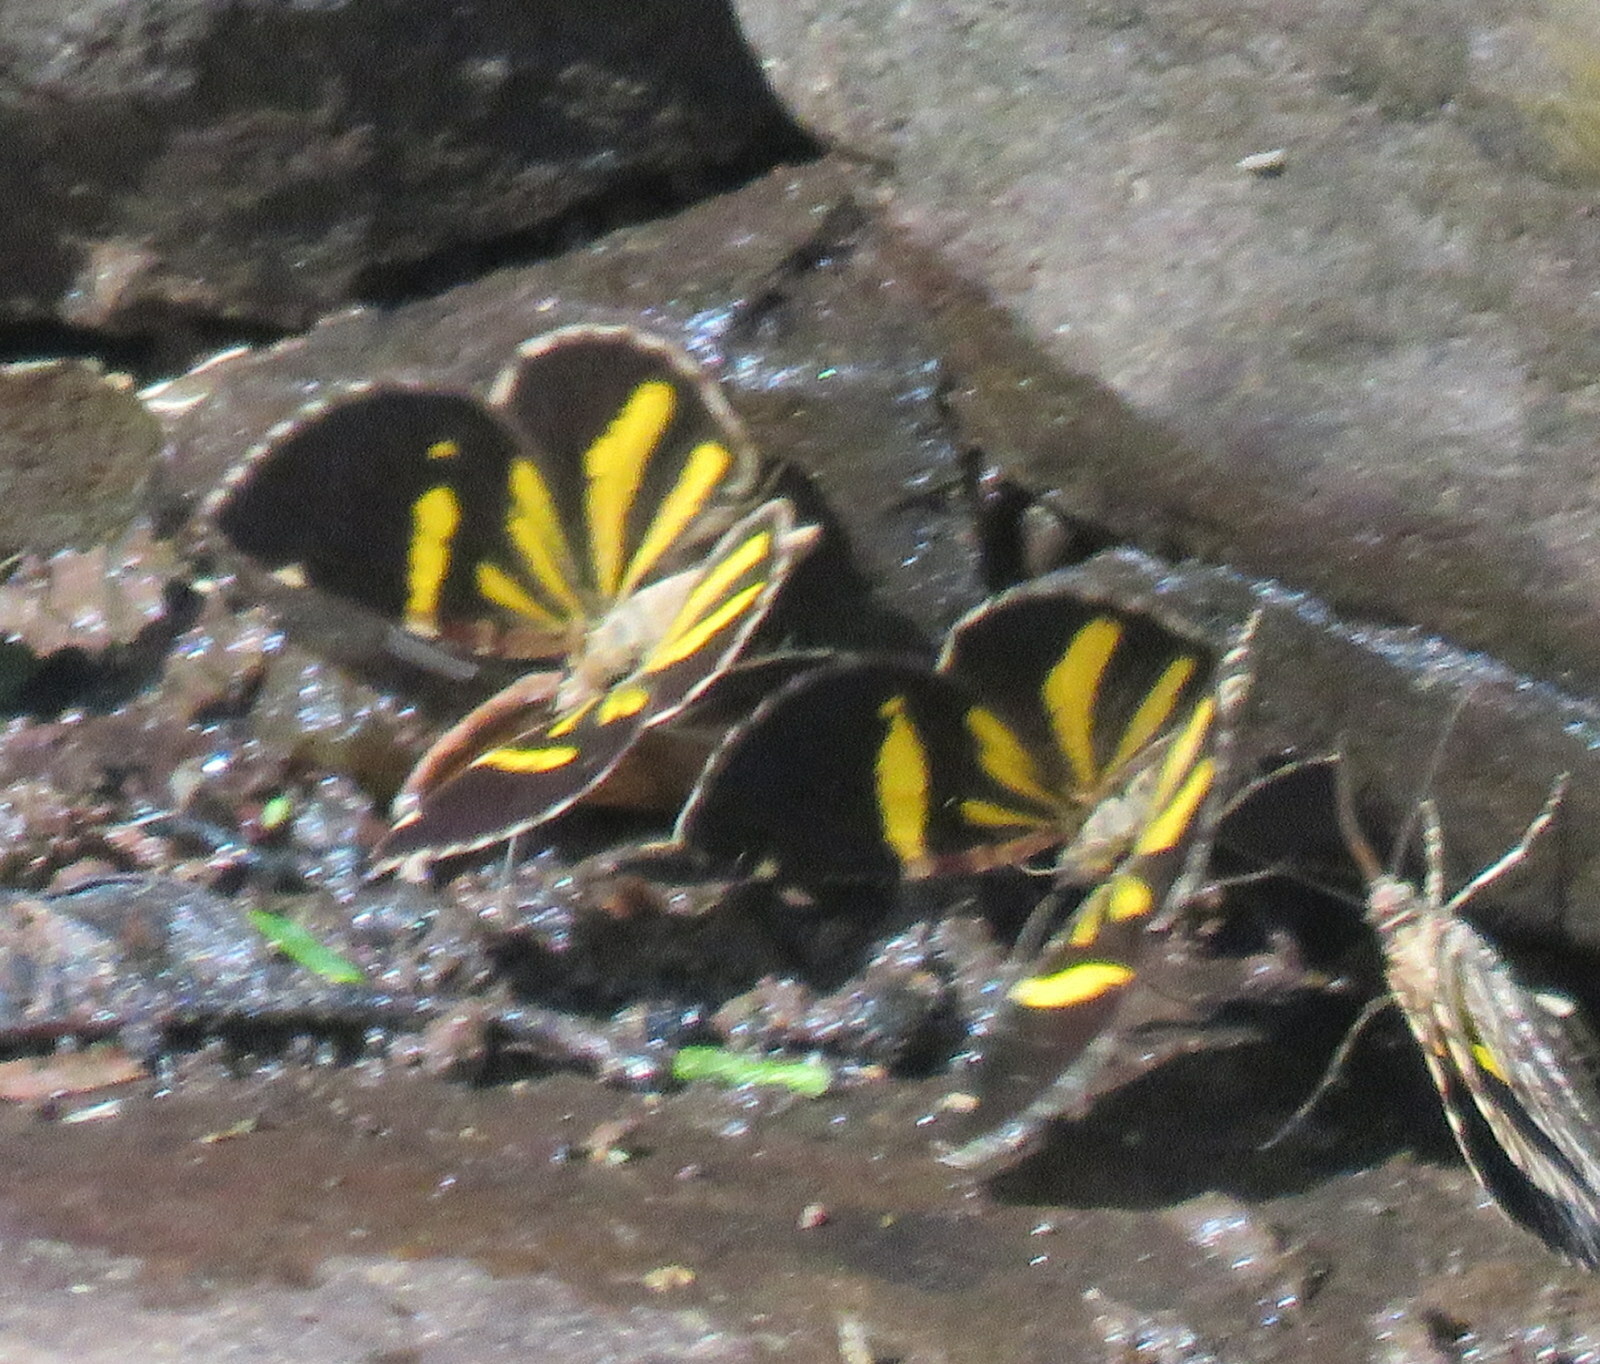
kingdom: Animalia
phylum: Arthropoda
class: Insecta
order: Lepidoptera
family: Geometridae
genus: Heterusia
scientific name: Heterusia quadruplicaria
